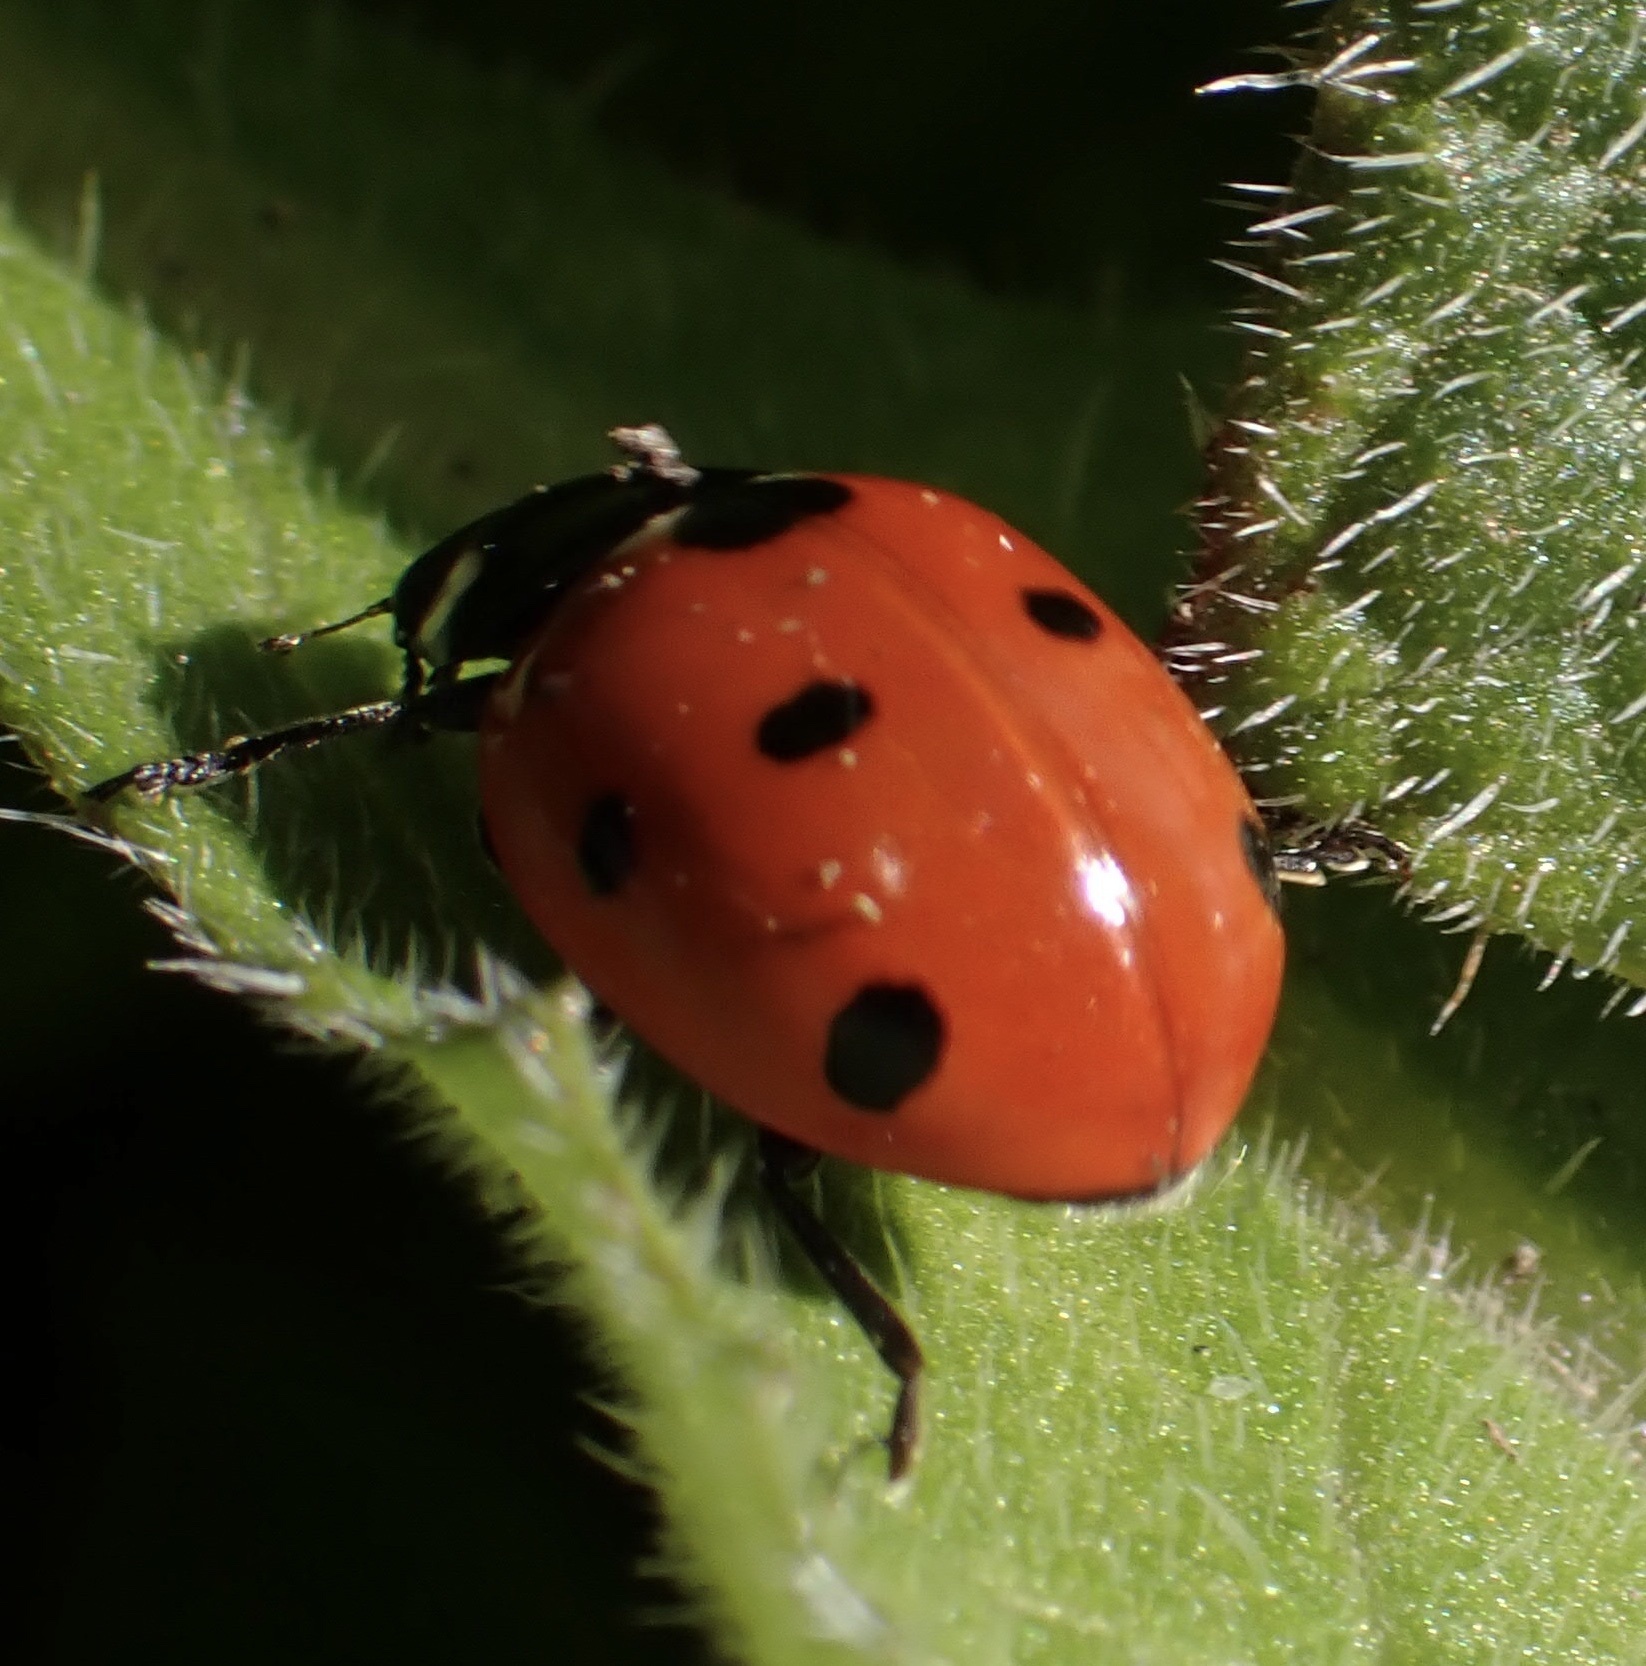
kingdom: Animalia
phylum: Arthropoda
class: Insecta
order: Coleoptera
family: Coccinellidae
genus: Coccinella
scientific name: Coccinella septempunctata
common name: Sevenspotted lady beetle
